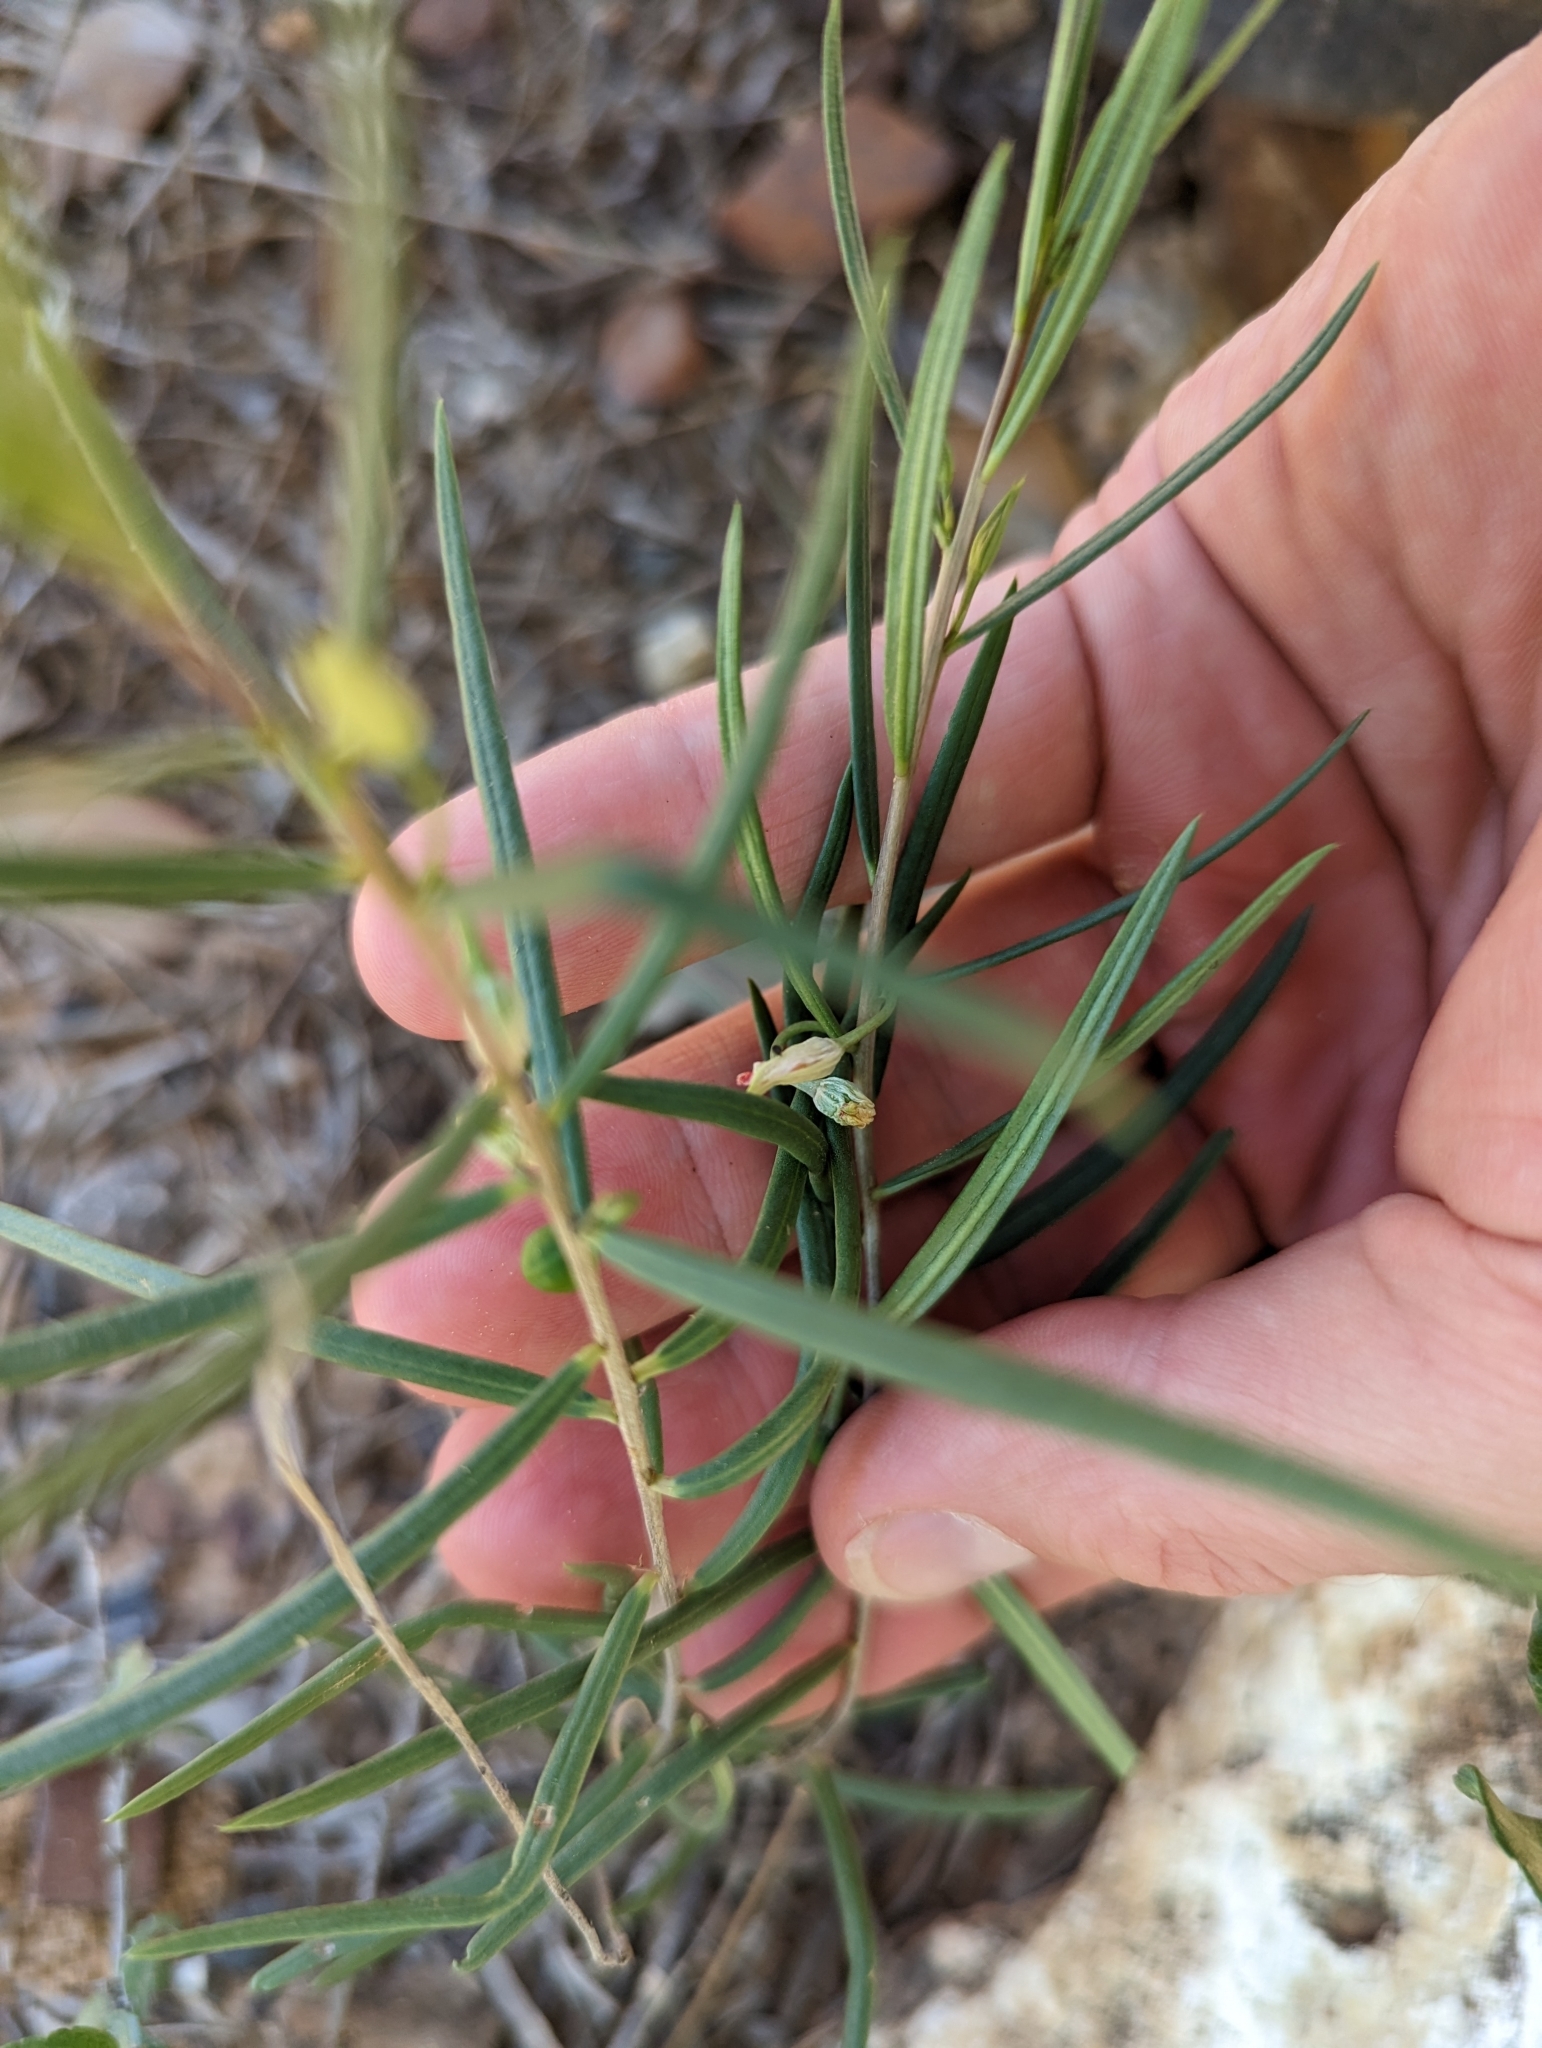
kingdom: Plantae
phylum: Tracheophyta
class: Magnoliopsida
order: Caryophyllales
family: Montiaceae
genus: Phemeranthus
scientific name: Phemeranthus aurantiacus
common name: Orange fameflower
